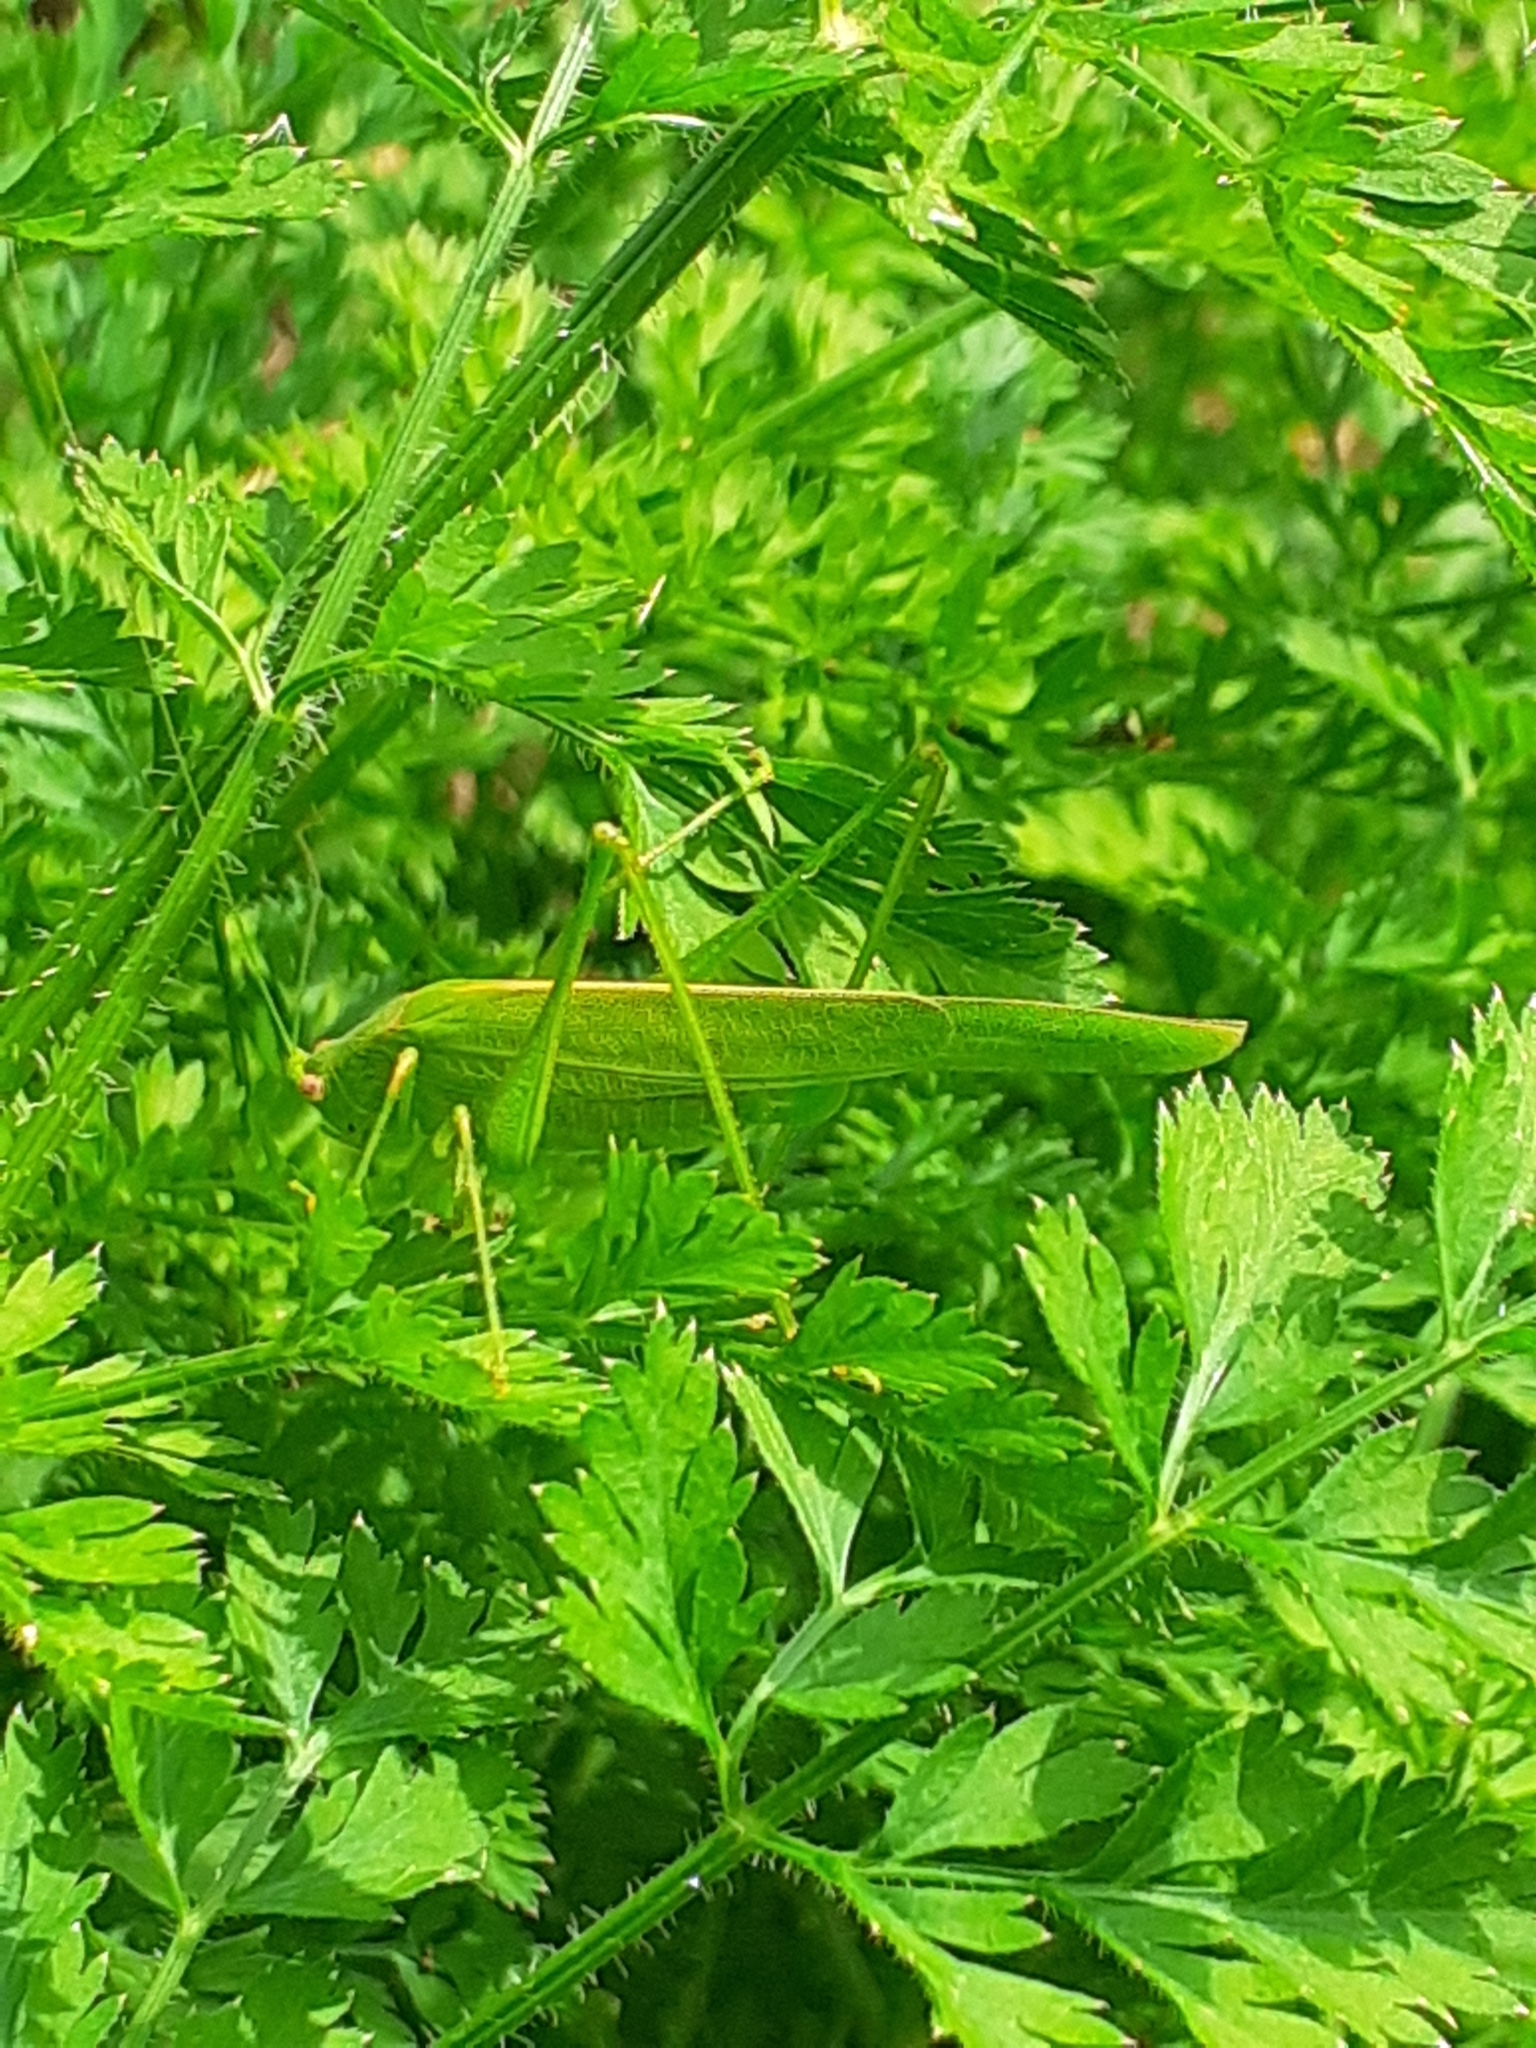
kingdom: Animalia
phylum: Arthropoda
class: Insecta
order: Orthoptera
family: Tettigoniidae
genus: Phaneroptera
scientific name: Phaneroptera sparsa
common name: Sickle-bearing leaf katydid
